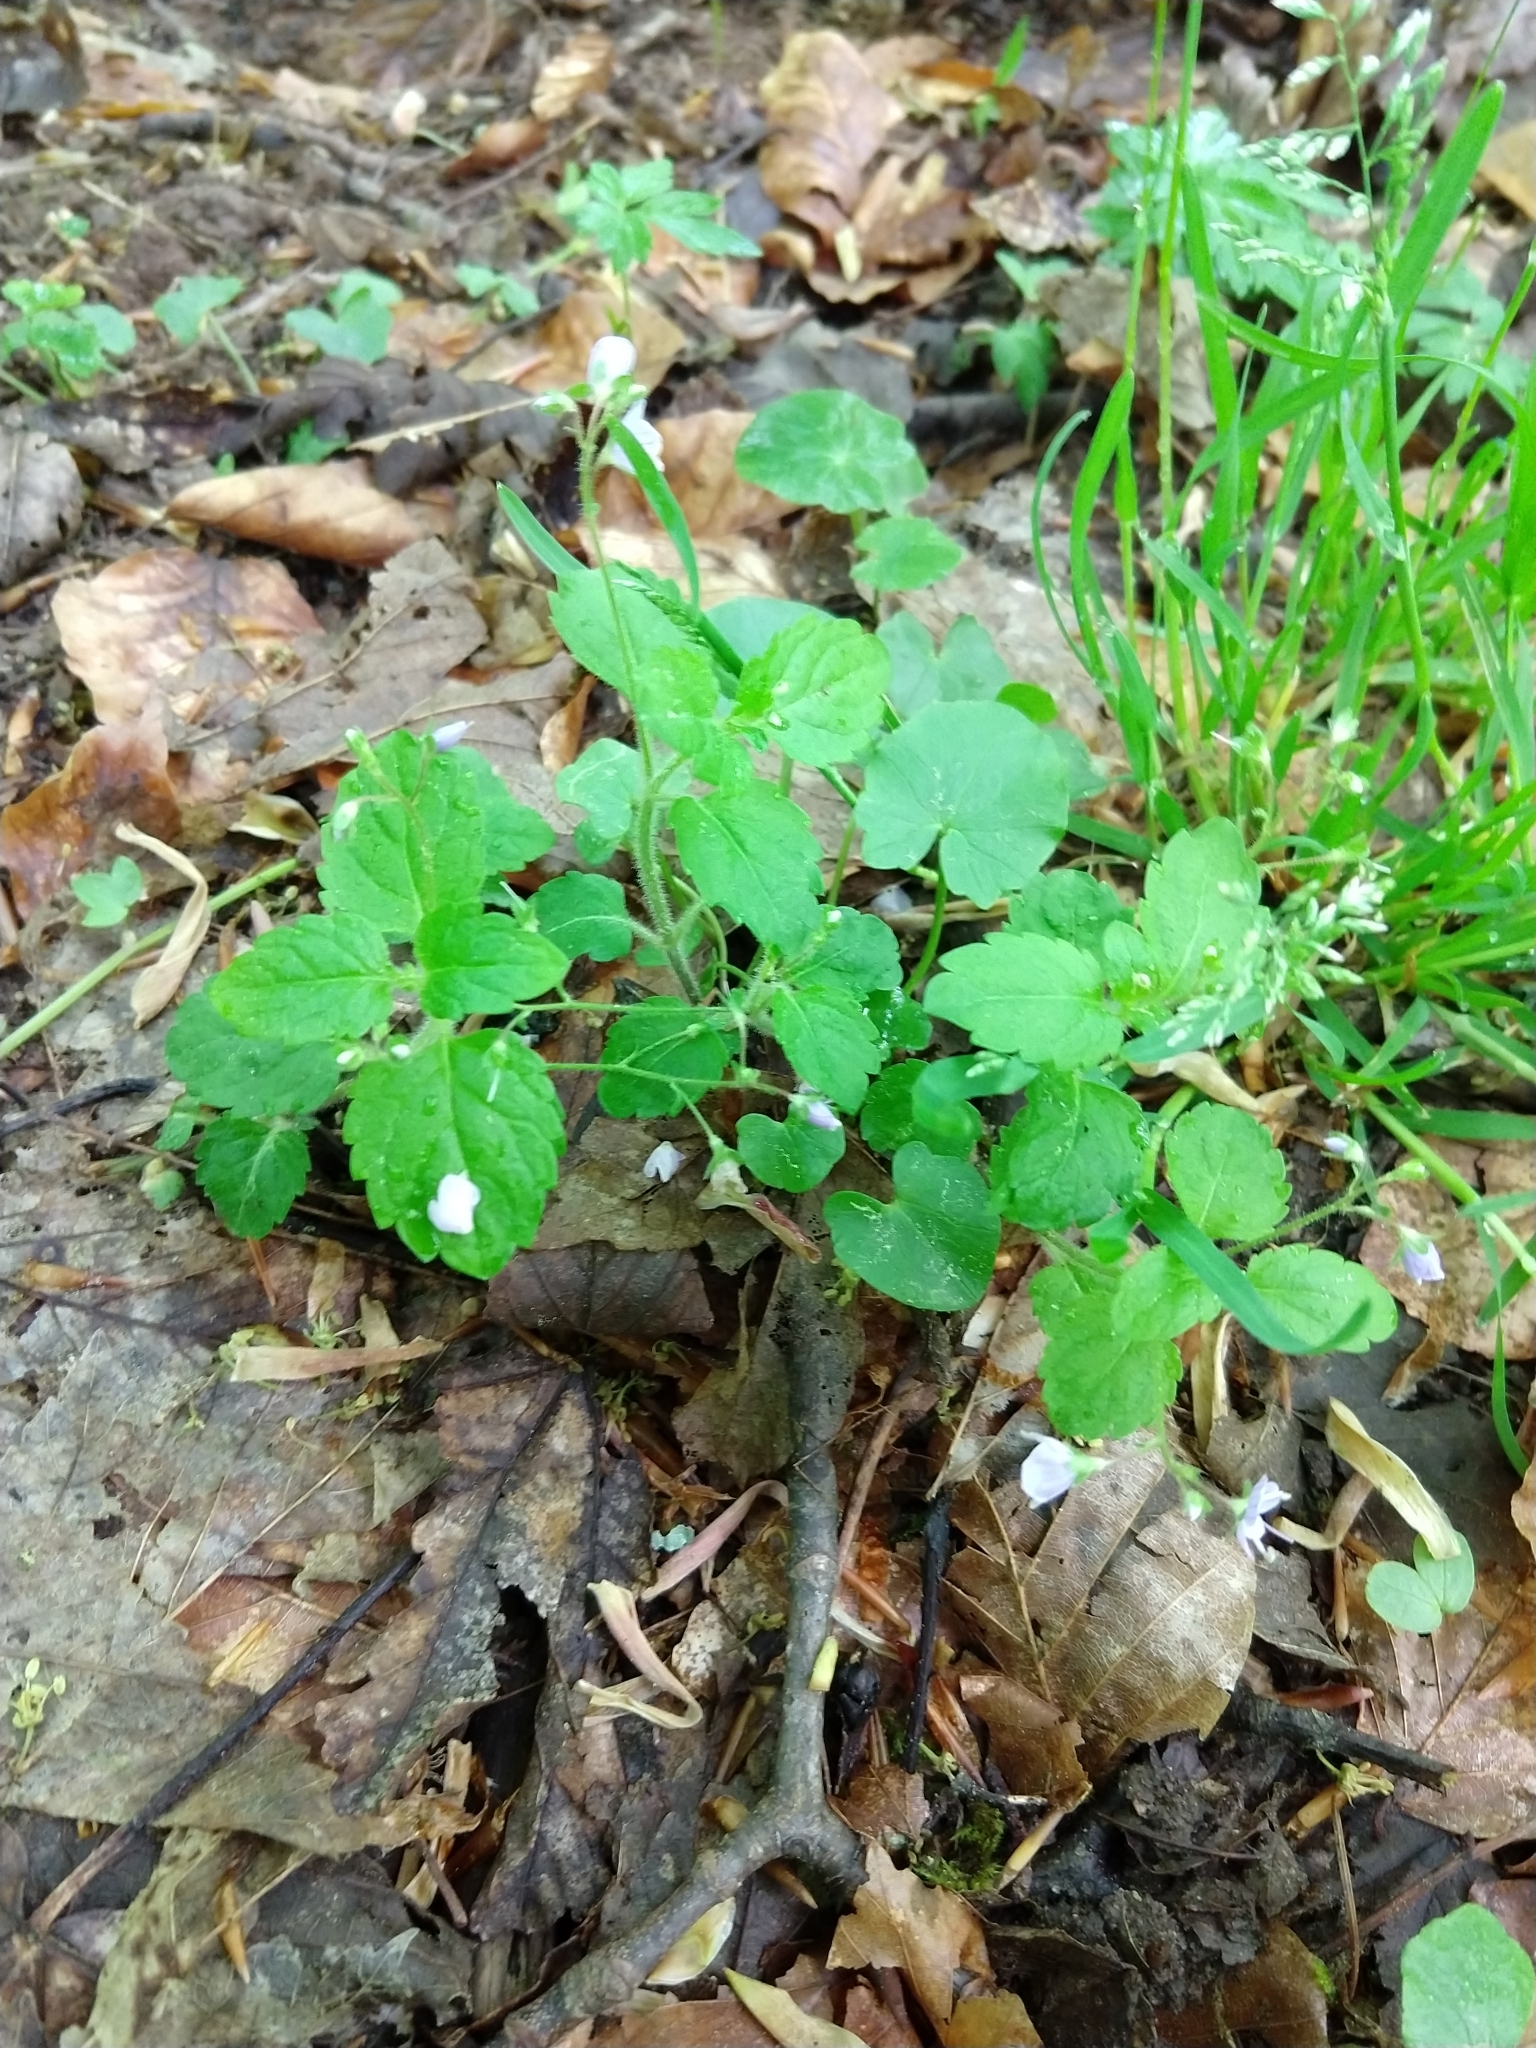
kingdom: Plantae
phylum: Tracheophyta
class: Magnoliopsida
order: Lamiales
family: Plantaginaceae
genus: Veronica
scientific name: Veronica montana
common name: Wood speedwell
